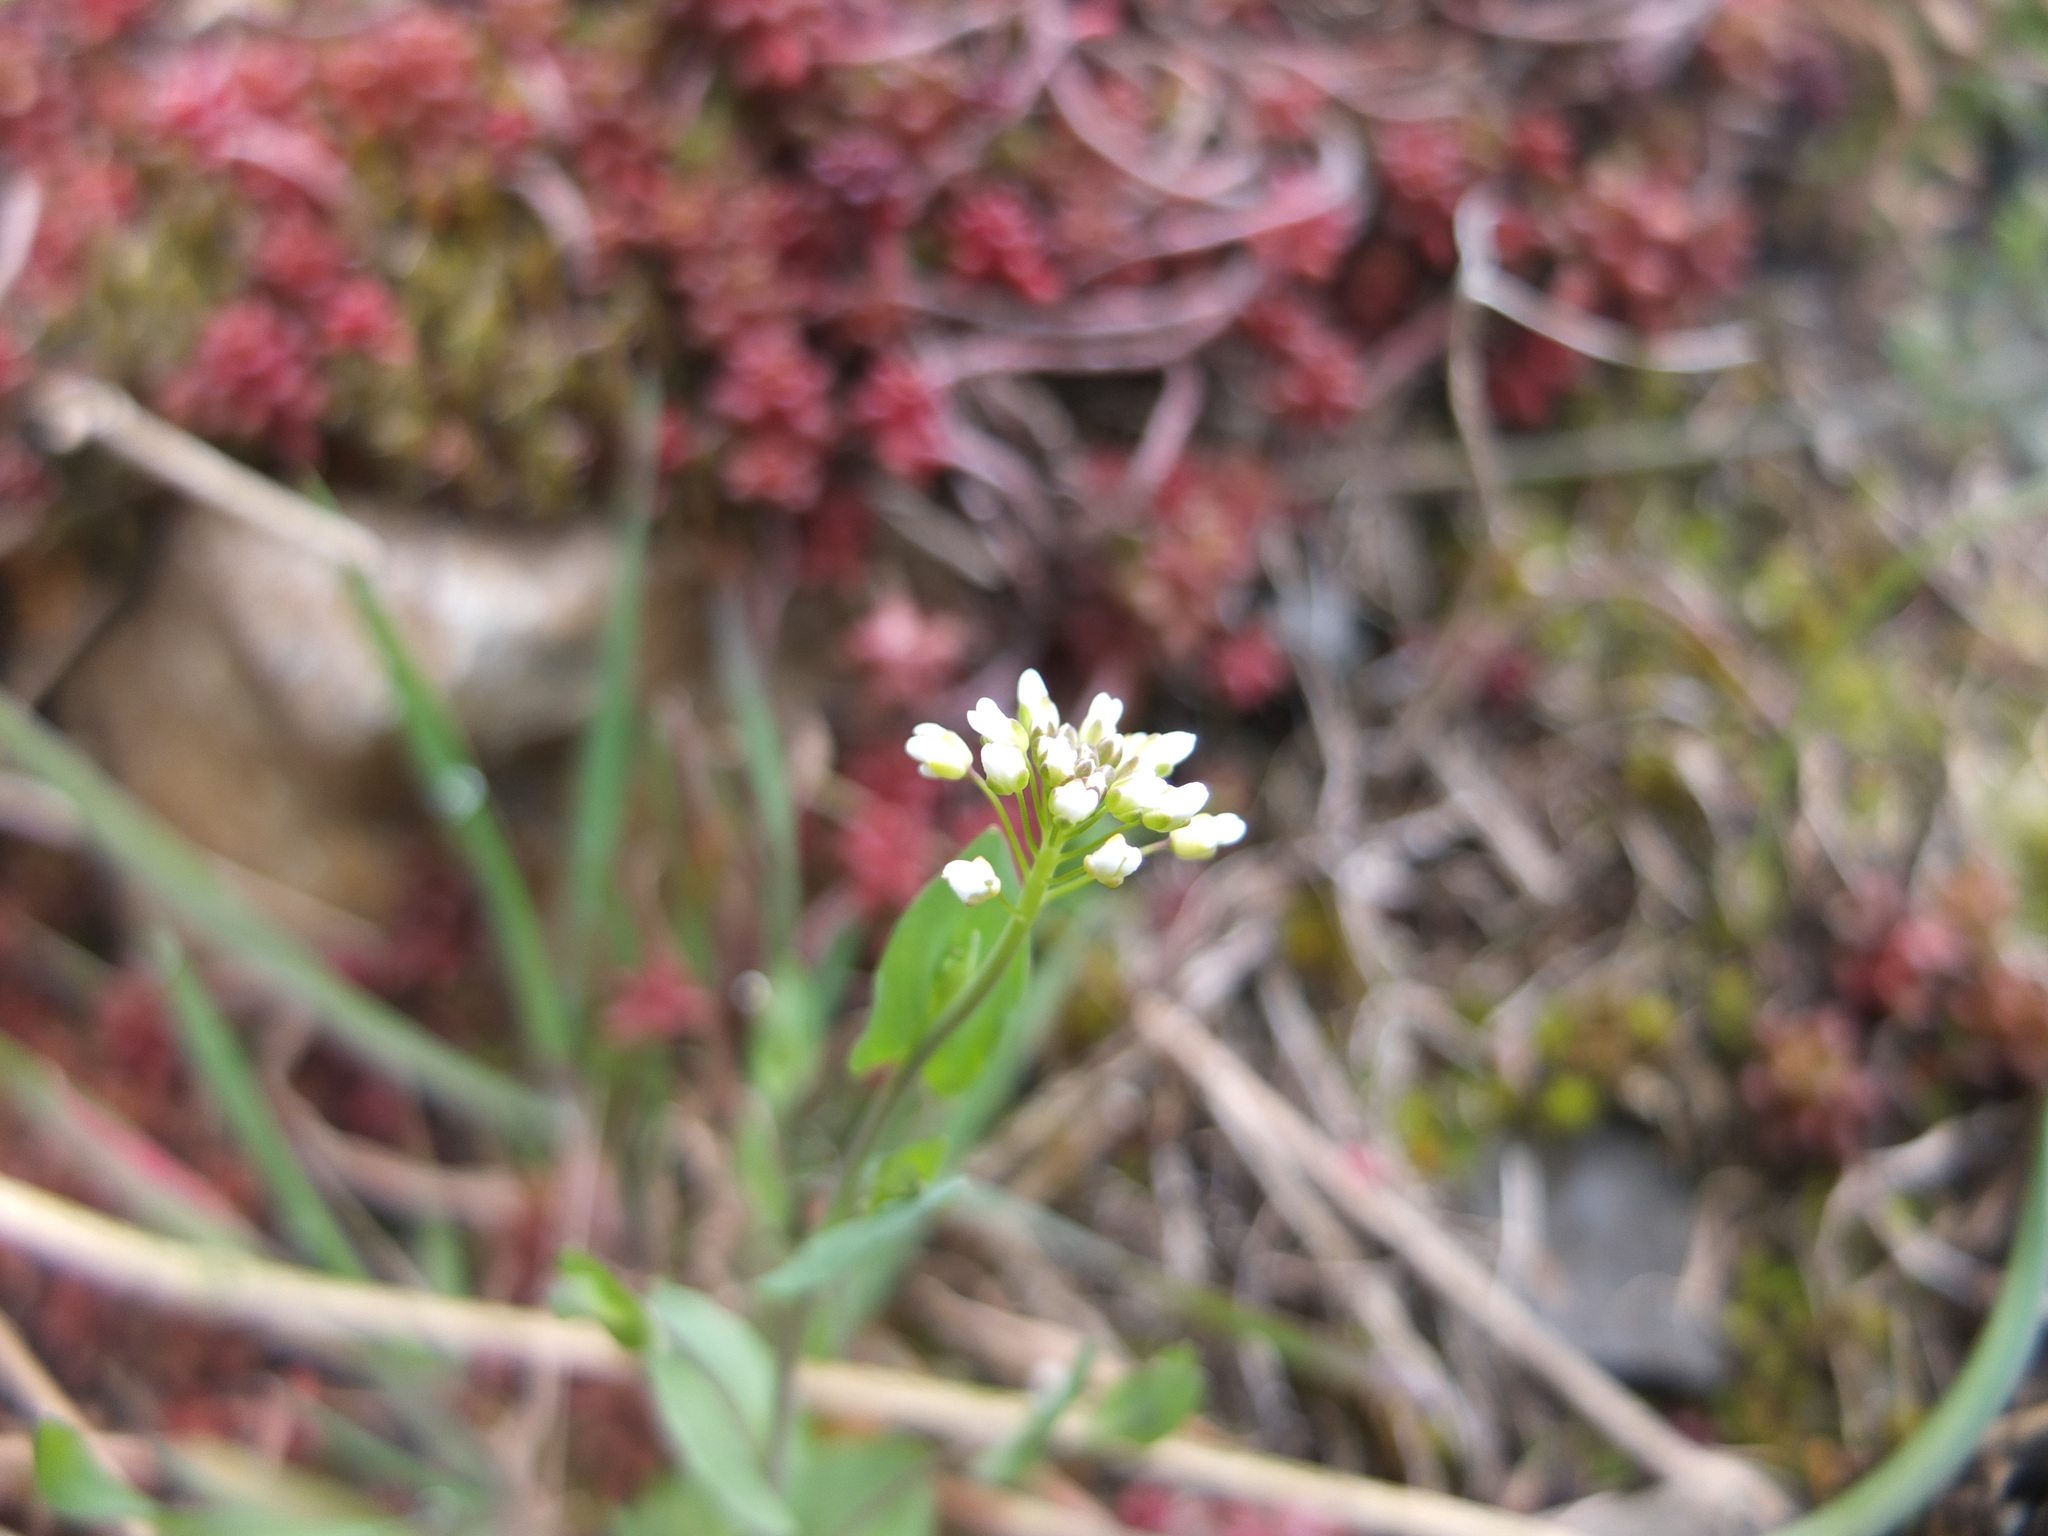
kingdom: Plantae
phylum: Tracheophyta
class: Magnoliopsida
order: Brassicales
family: Brassicaceae
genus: Noccaea
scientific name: Noccaea perfoliata
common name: Perfoliate pennycress
